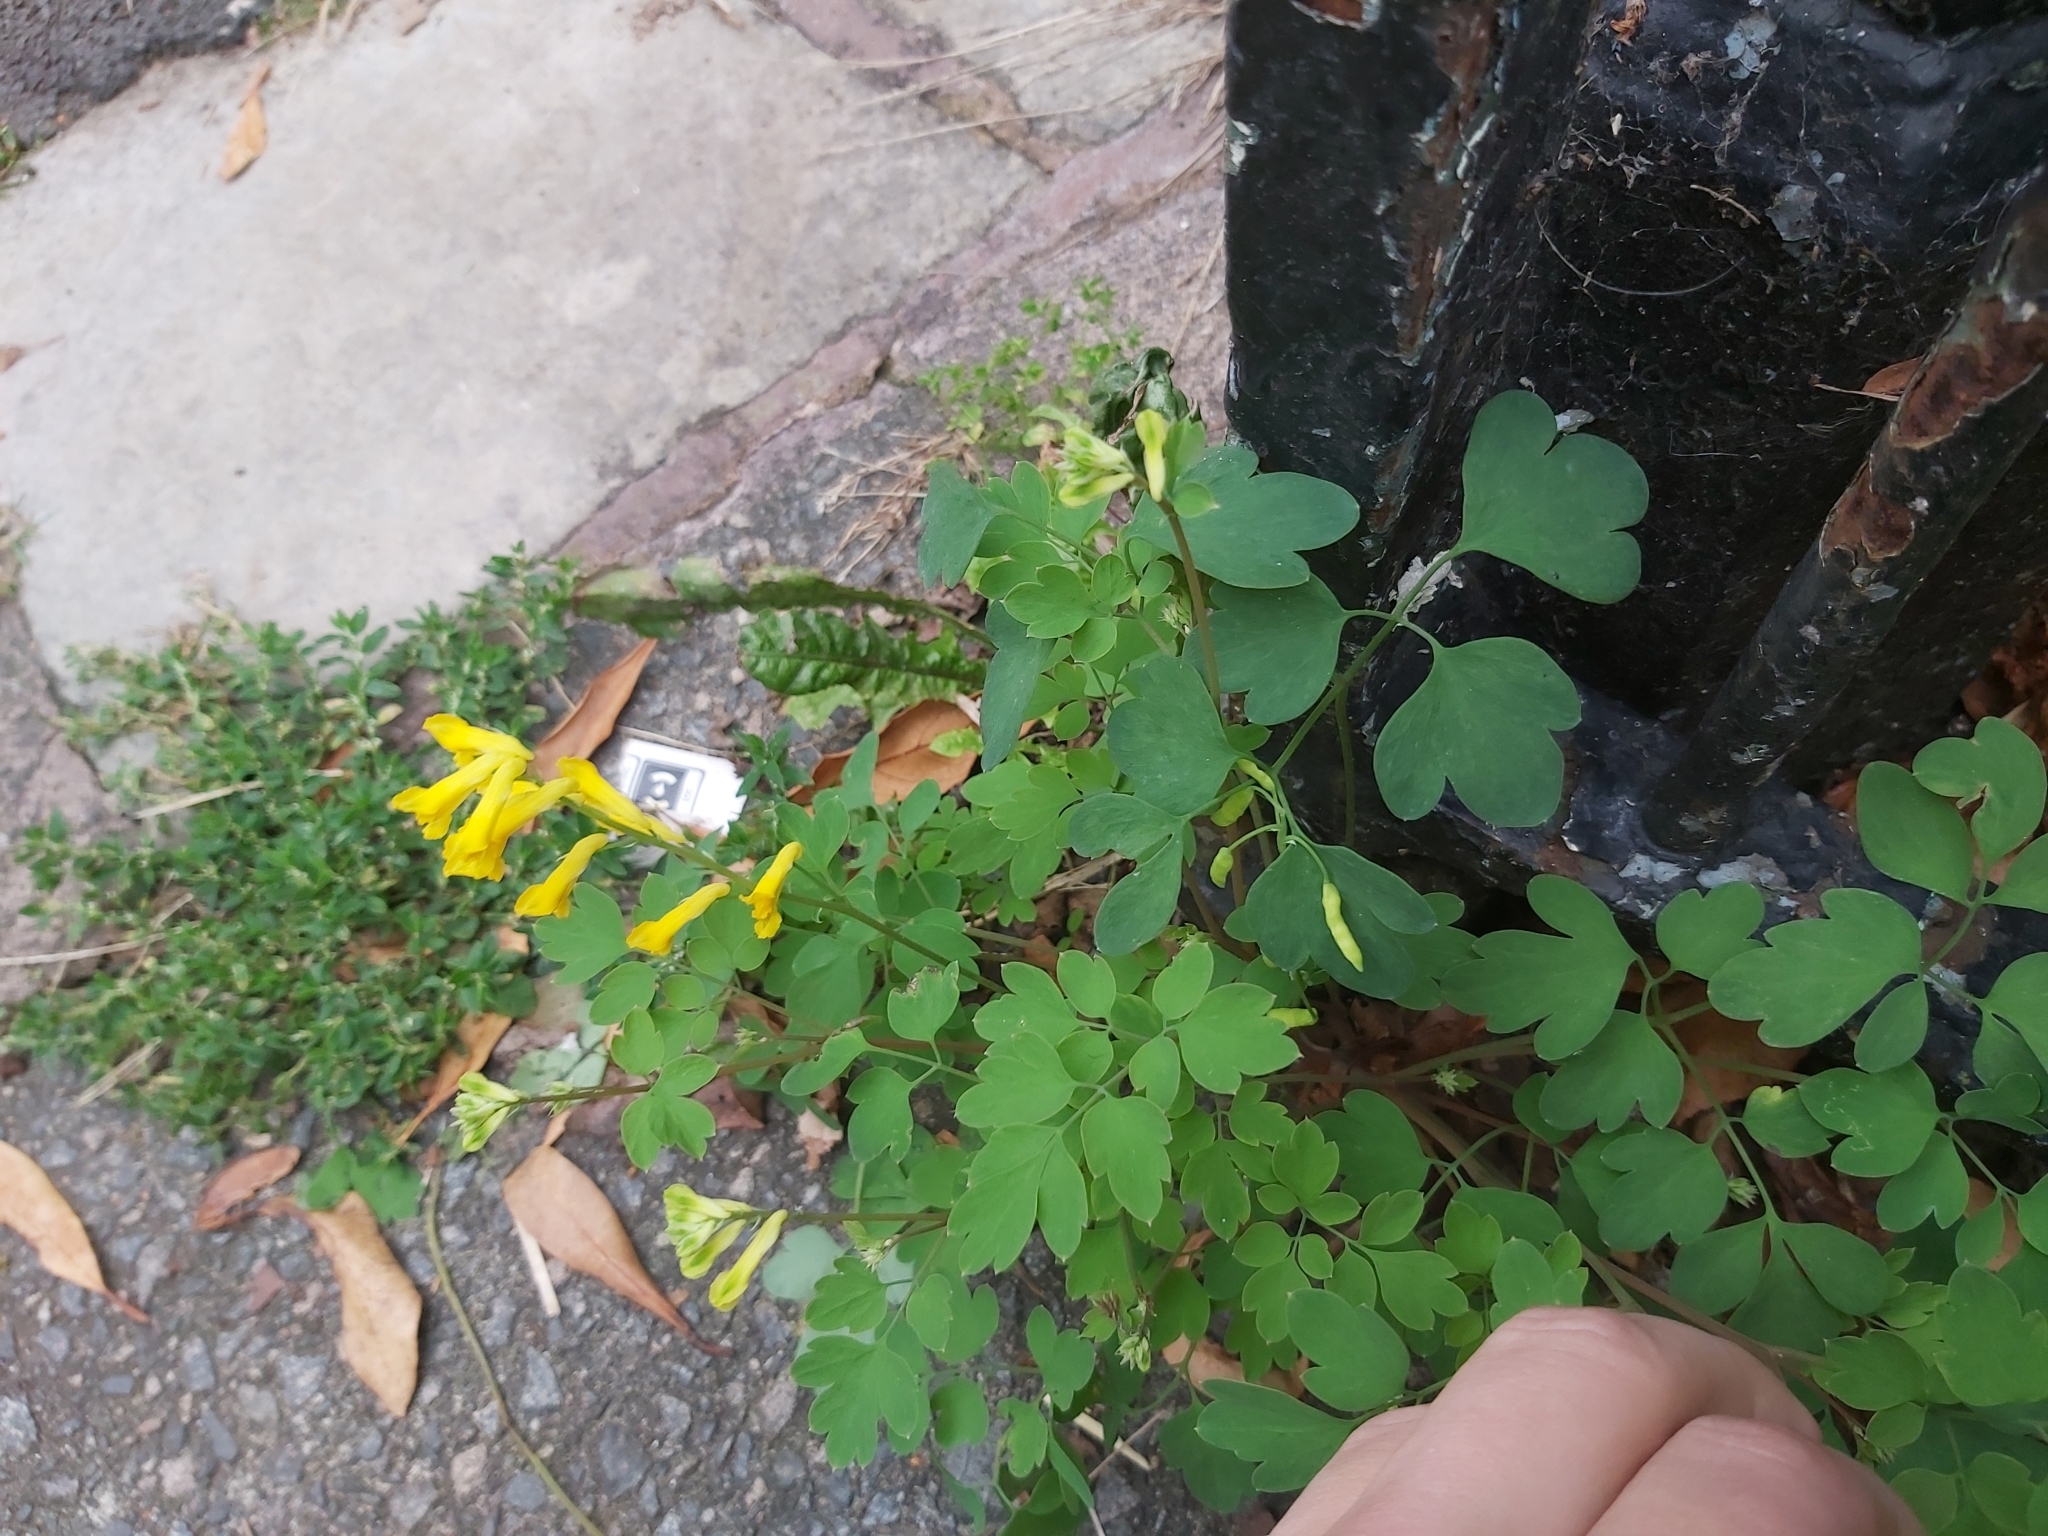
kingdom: Plantae
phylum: Tracheophyta
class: Magnoliopsida
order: Ranunculales
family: Papaveraceae
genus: Pseudofumaria
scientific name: Pseudofumaria lutea
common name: Yellow corydalis
